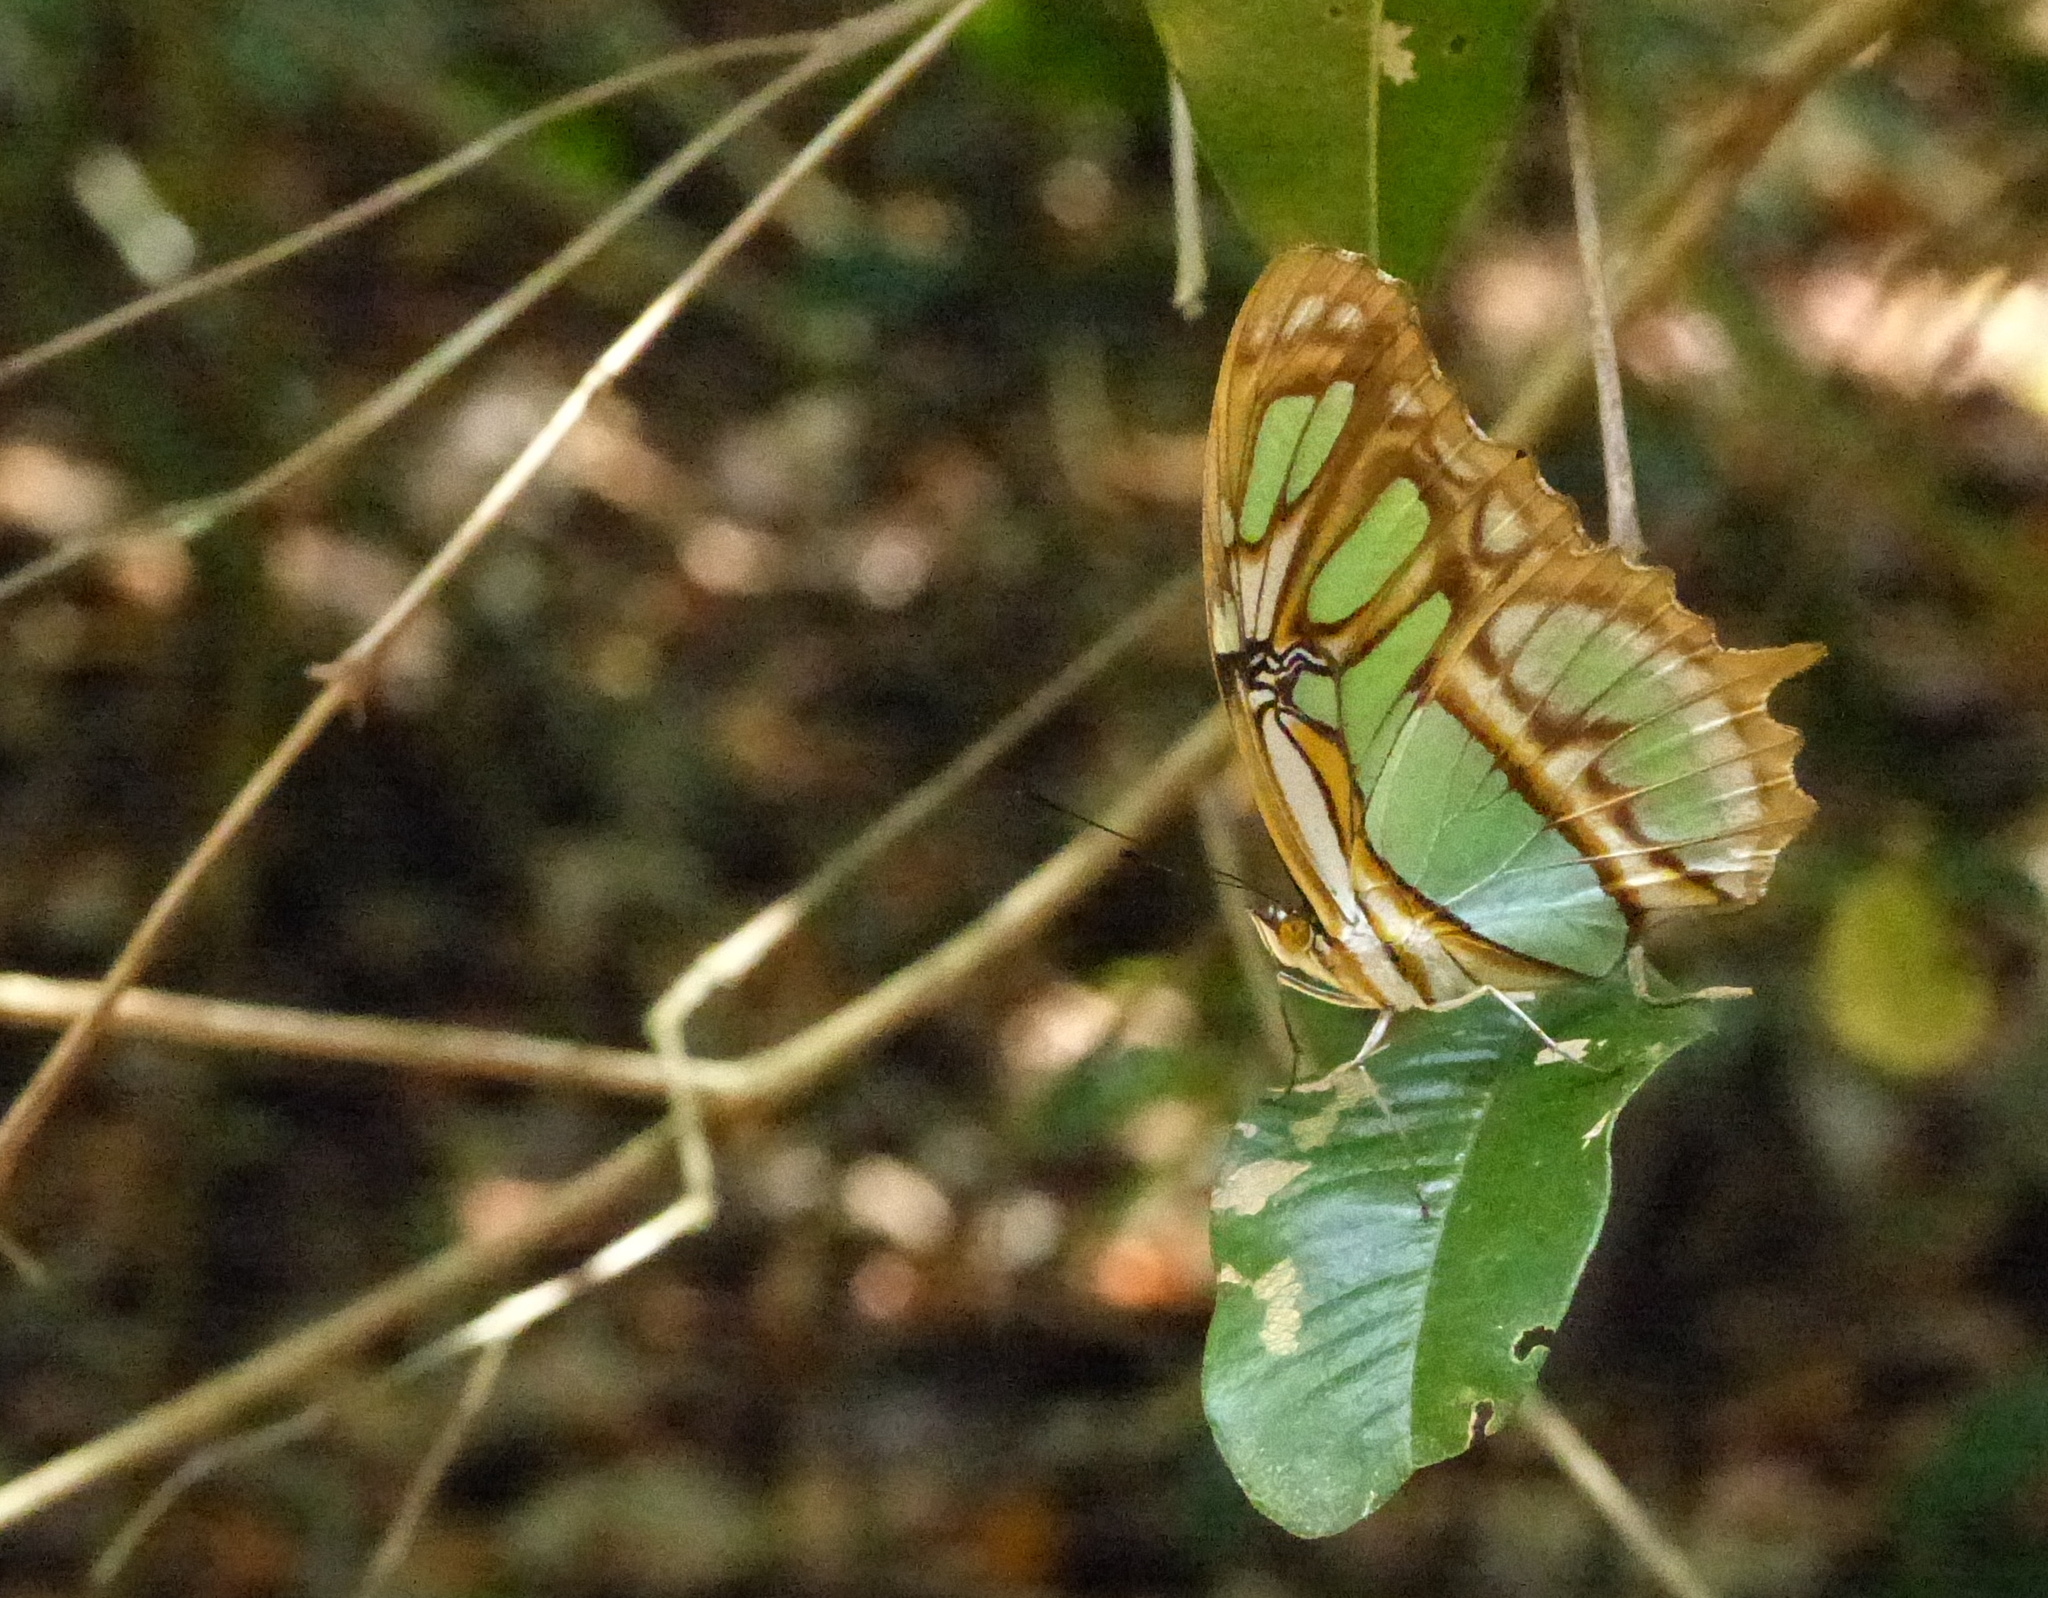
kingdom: Animalia
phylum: Arthropoda
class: Insecta
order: Lepidoptera
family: Nymphalidae
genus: Siproeta
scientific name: Siproeta stelenes
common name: Malachite
